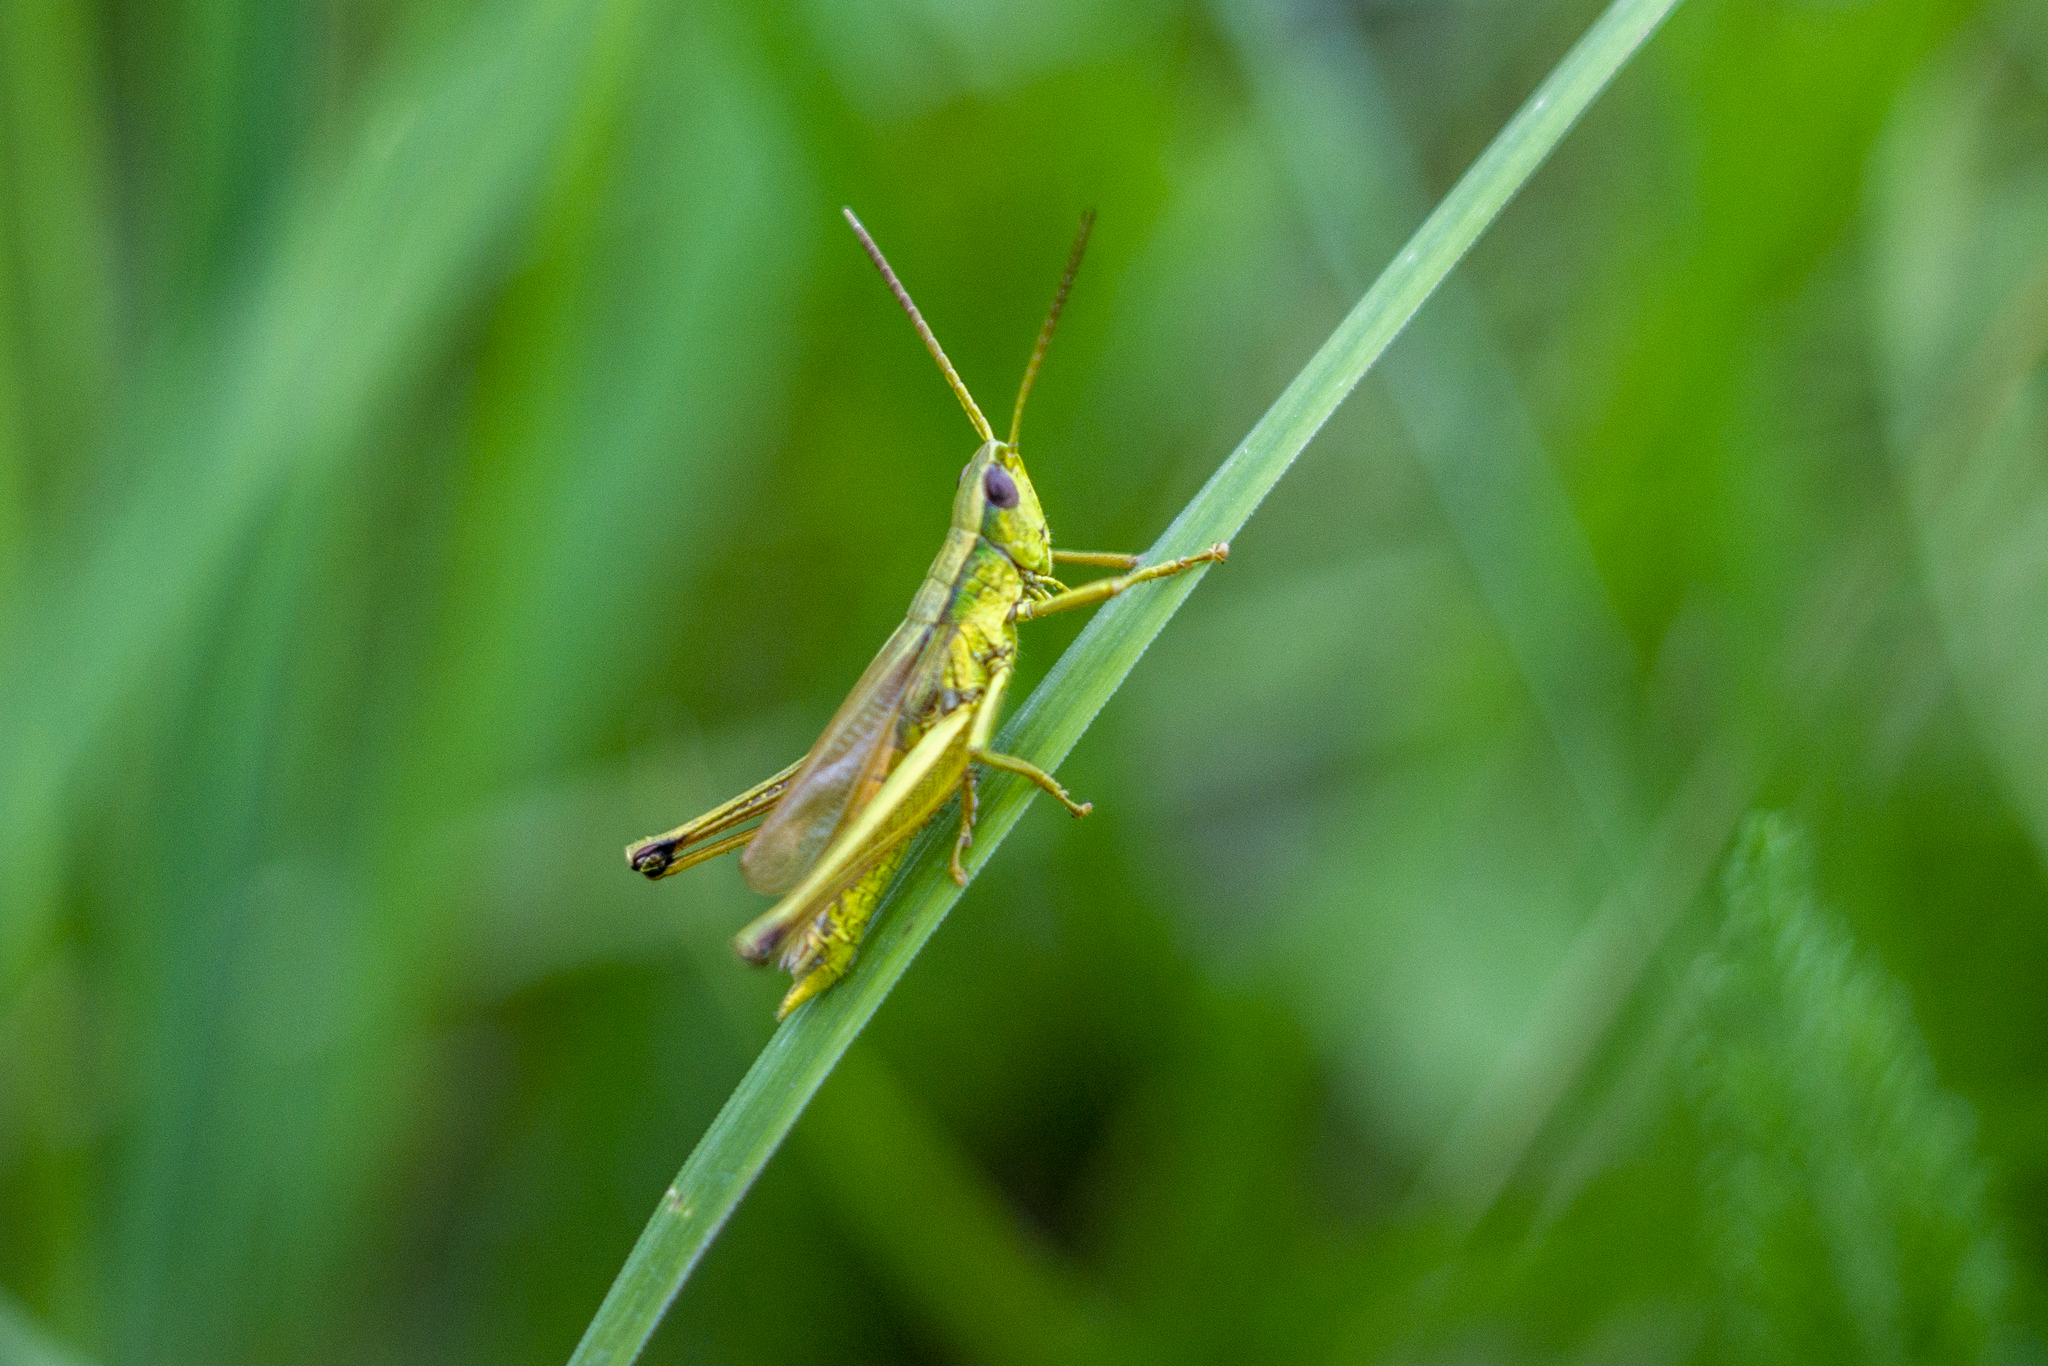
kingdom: Animalia
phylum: Arthropoda
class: Insecta
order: Orthoptera
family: Acrididae
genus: Chrysochraon
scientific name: Chrysochraon dispar
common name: Large gold grasshopper
